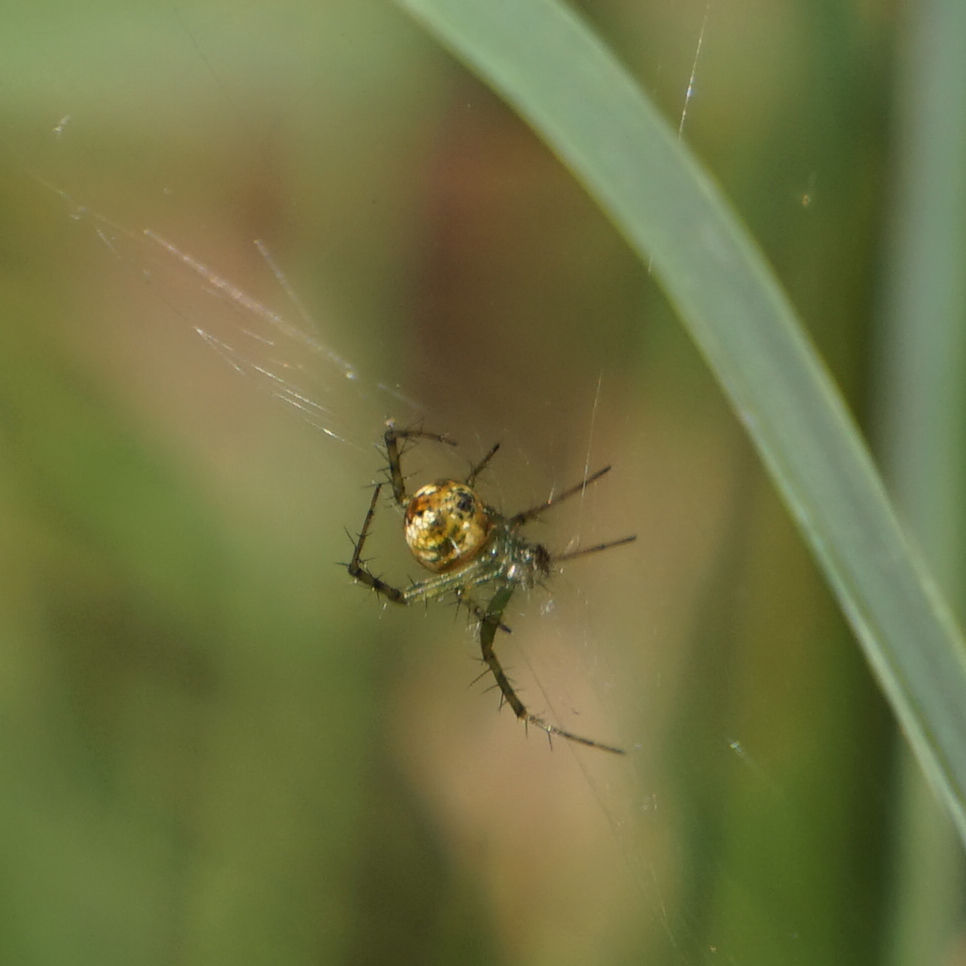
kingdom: Animalia
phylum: Arthropoda
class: Arachnida
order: Araneae
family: Araneidae
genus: Mangora
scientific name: Mangora spiculata
